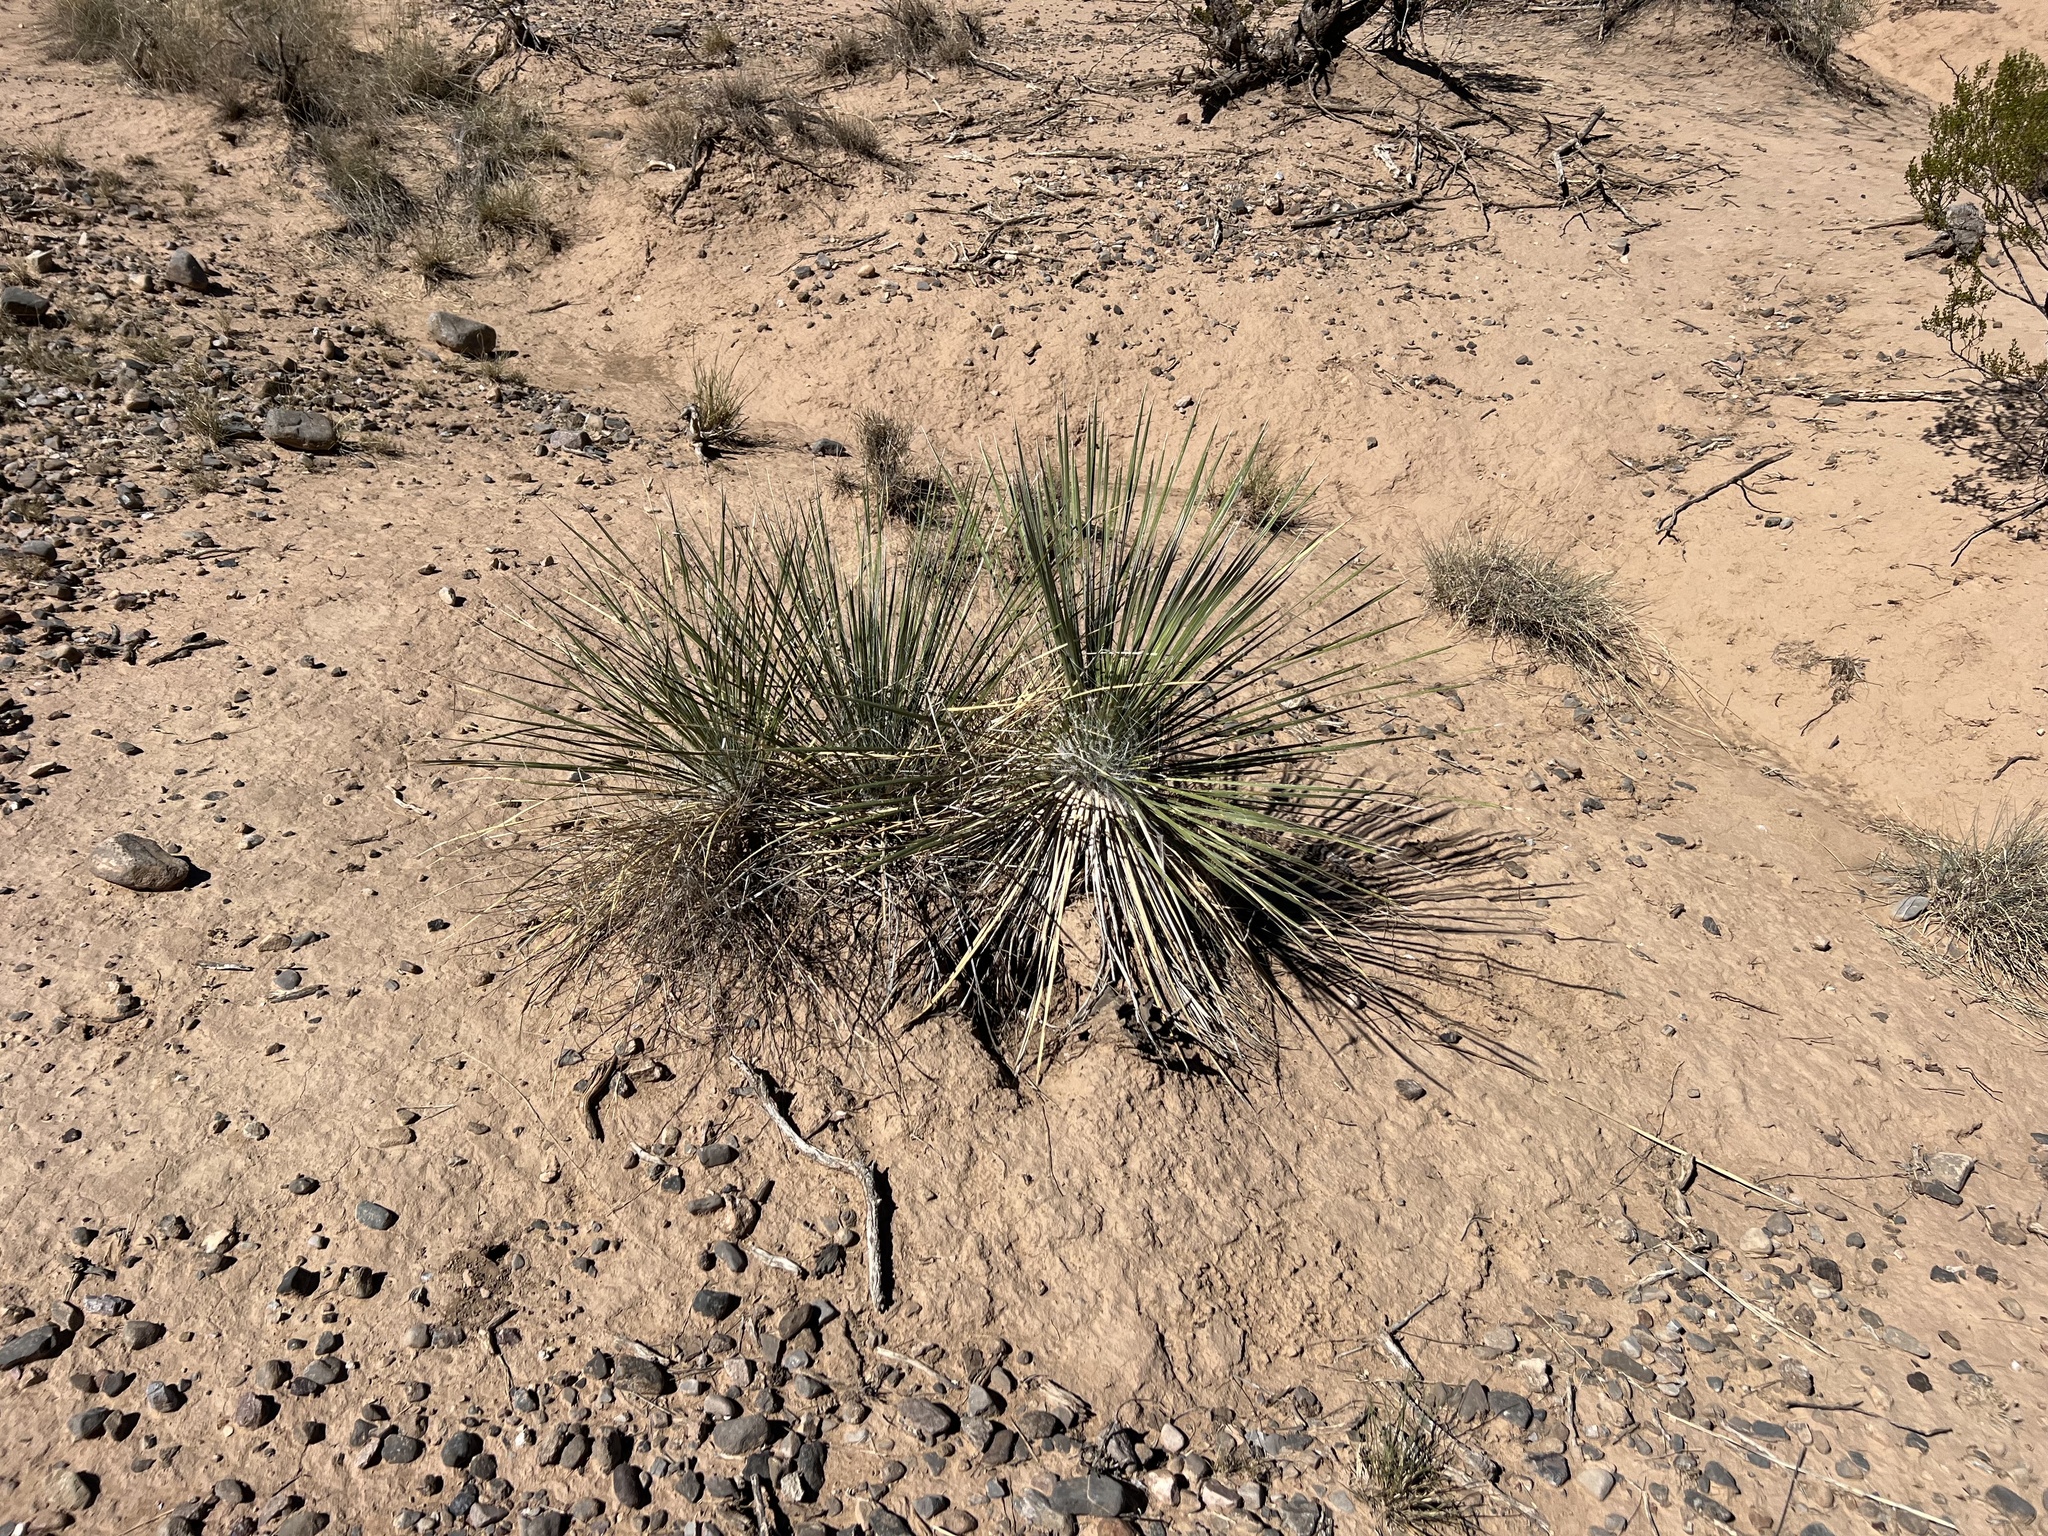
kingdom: Plantae
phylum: Tracheophyta
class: Liliopsida
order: Asparagales
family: Asparagaceae
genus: Yucca
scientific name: Yucca elata
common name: Palmella
